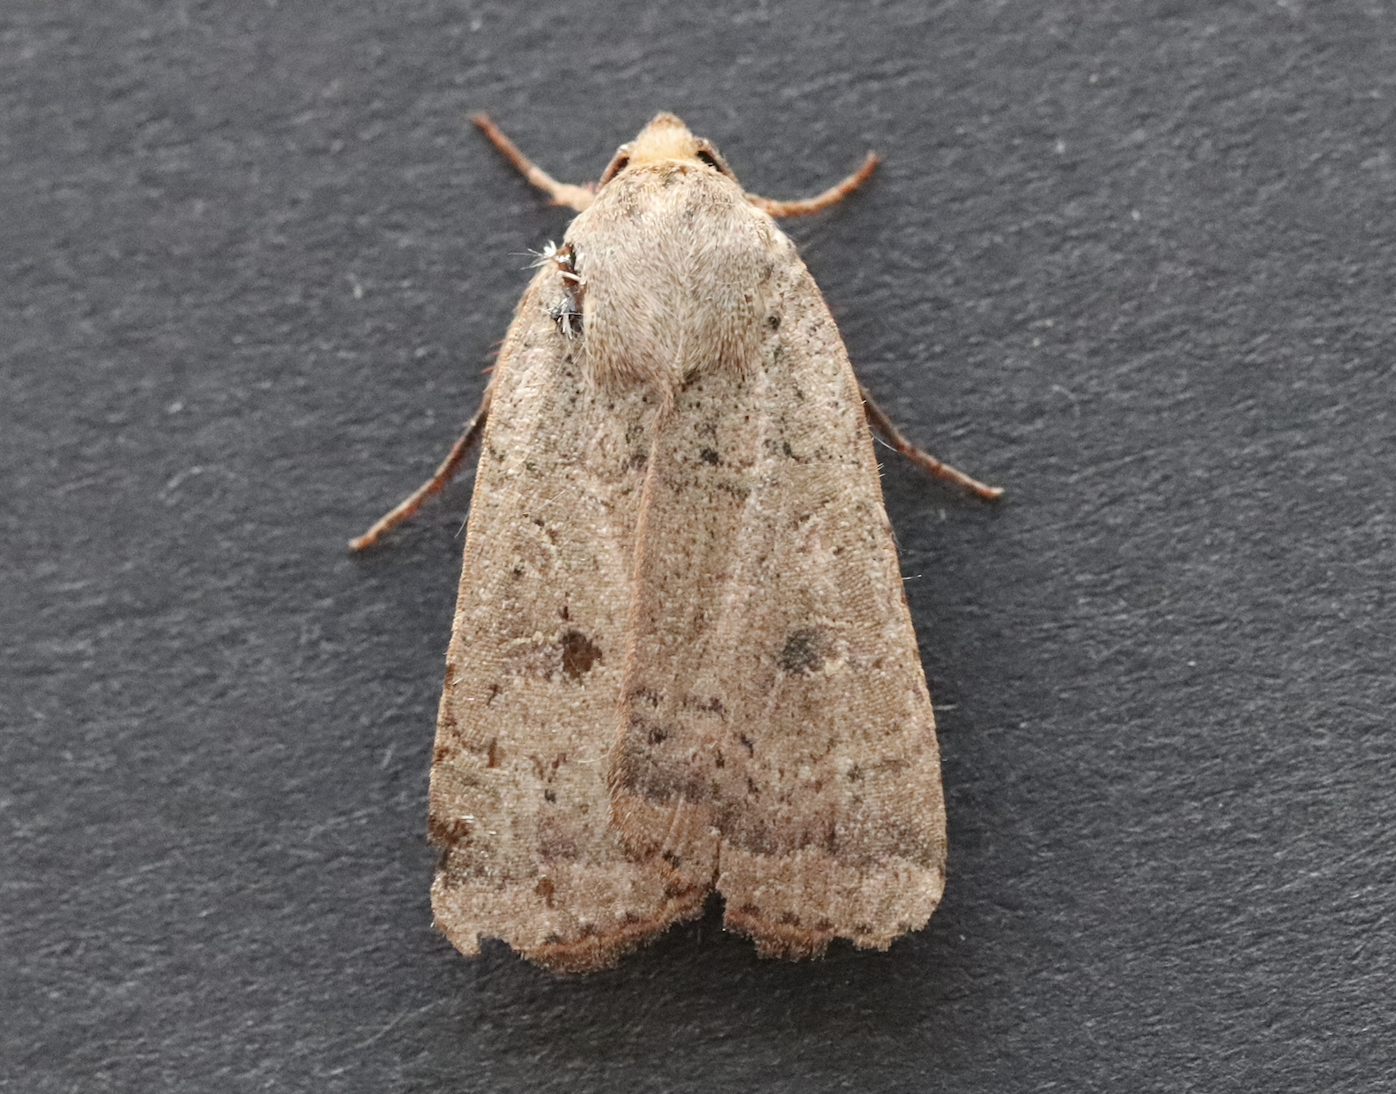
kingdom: Animalia
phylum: Arthropoda
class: Insecta
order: Lepidoptera
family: Noctuidae
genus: Noctua
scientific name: Noctua comes
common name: Lesser yellow underwing
